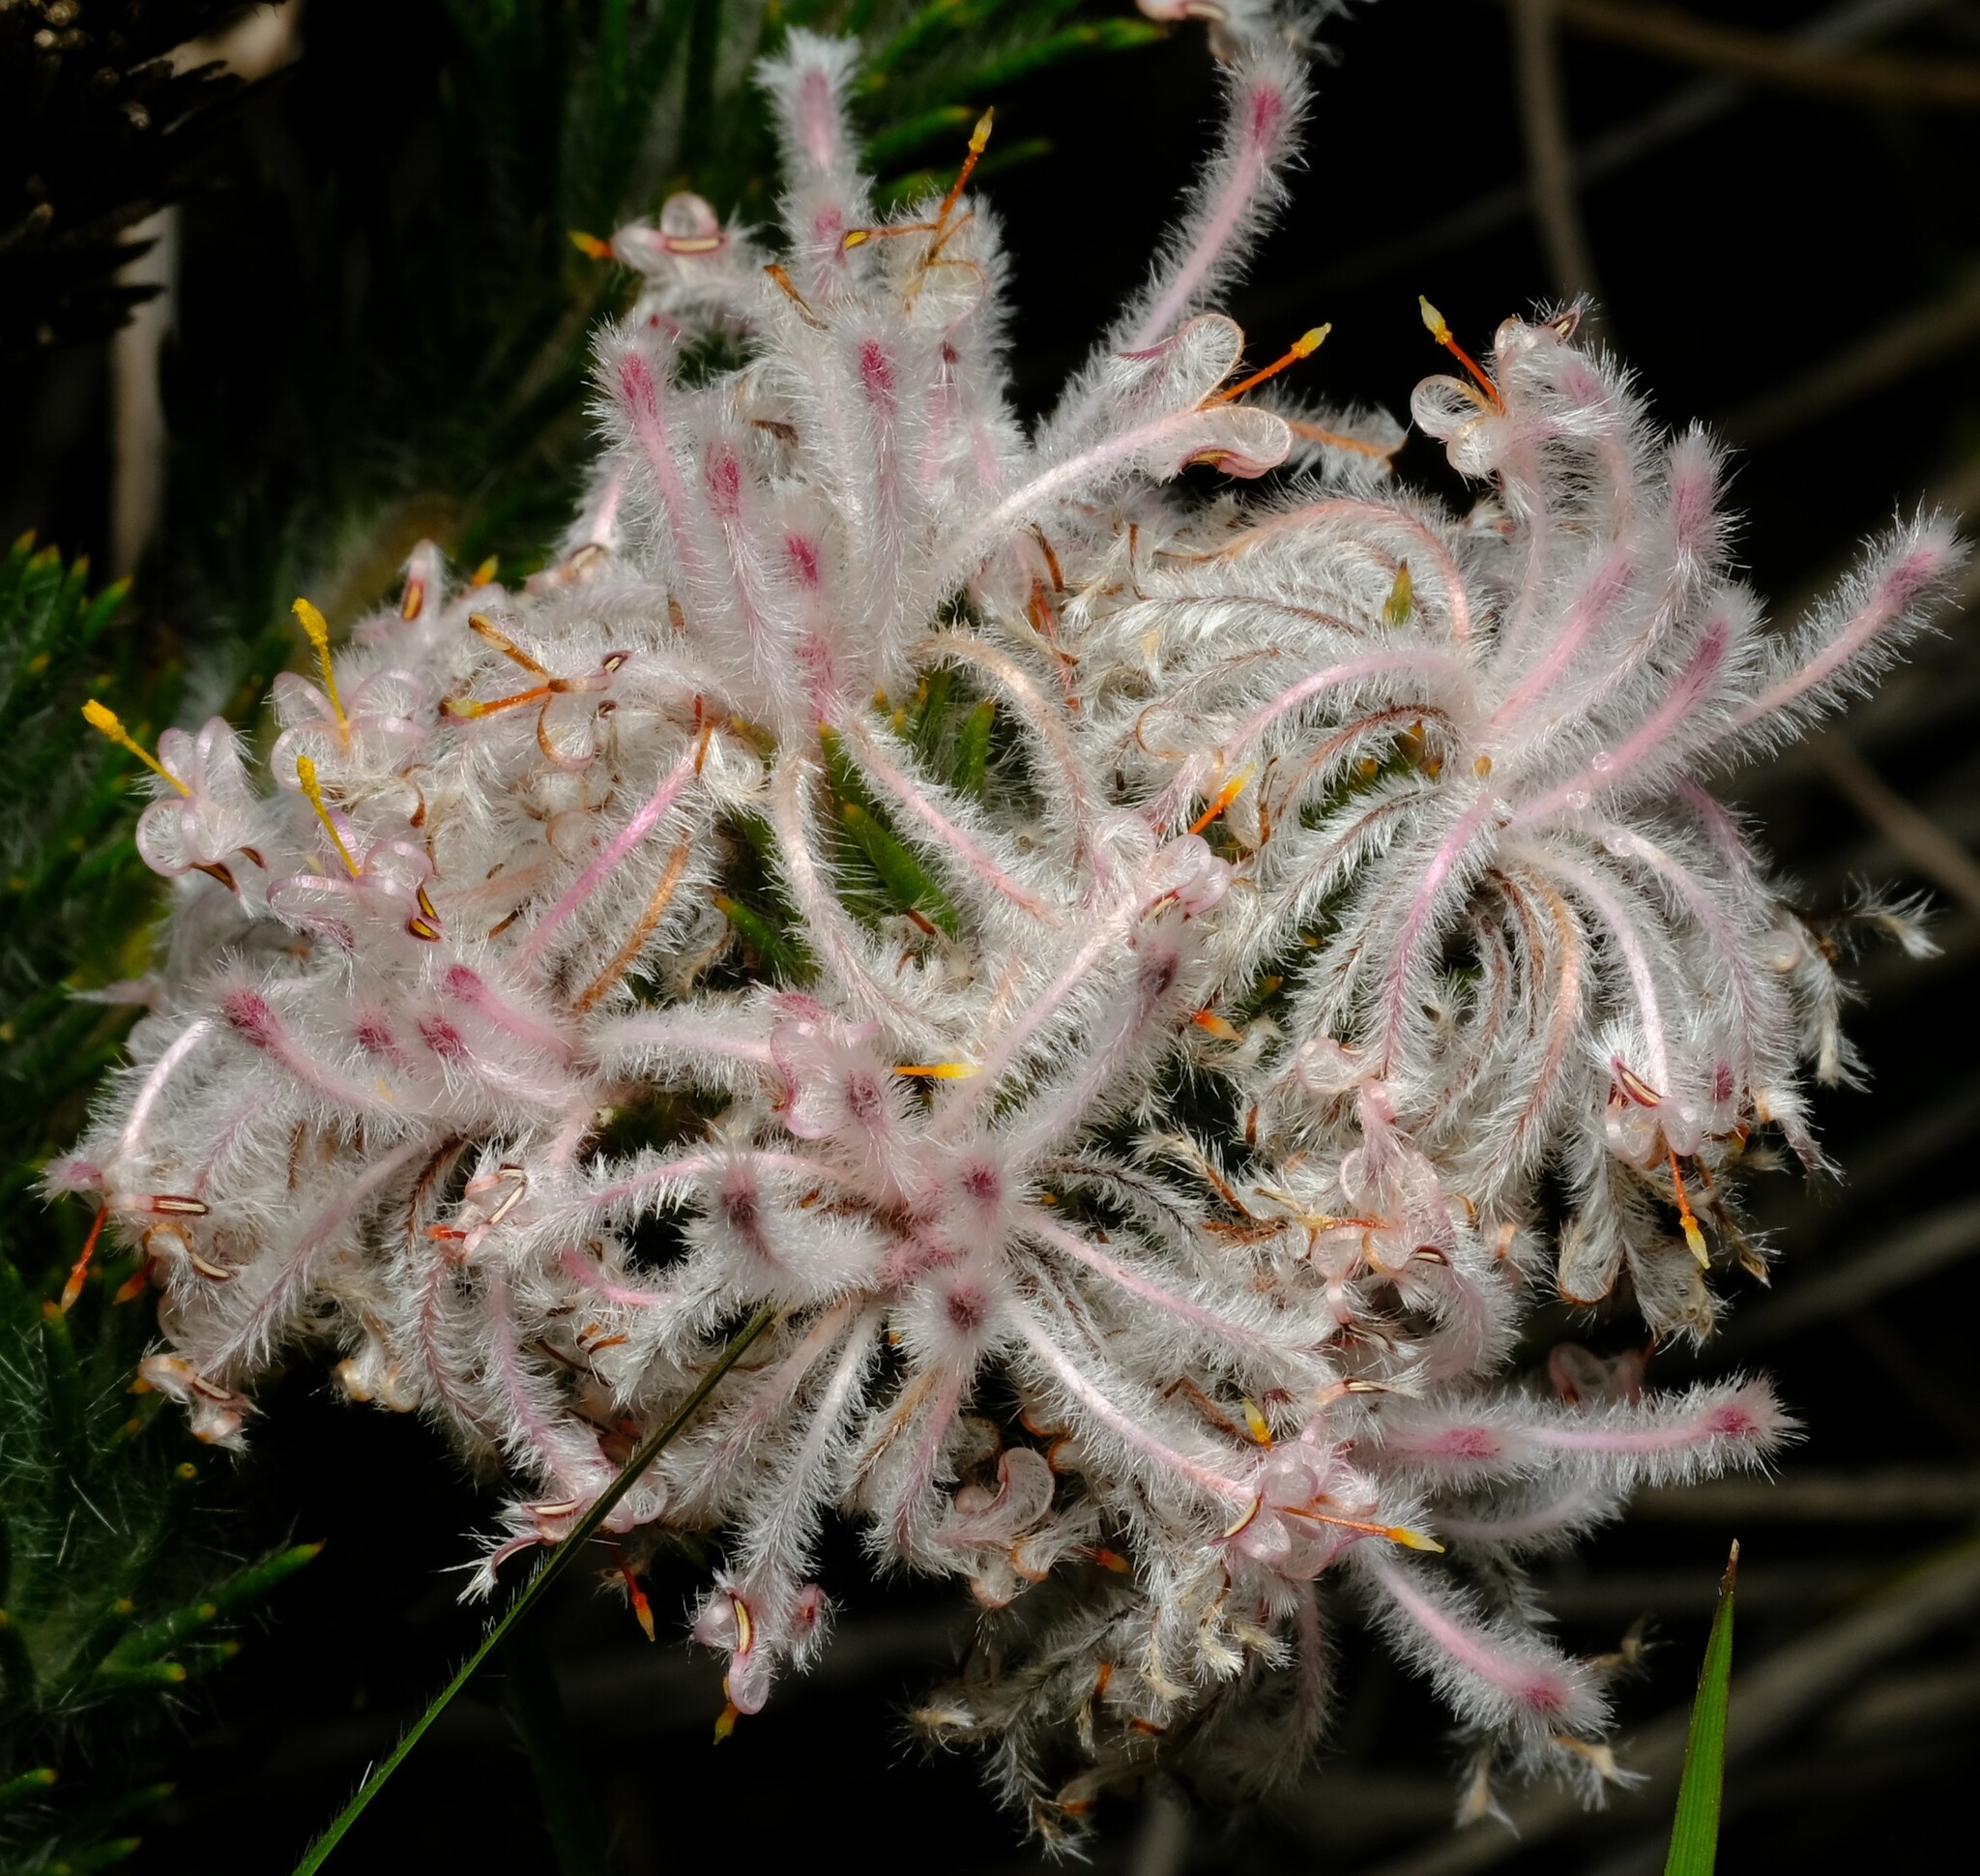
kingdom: Plantae
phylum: Tracheophyta
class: Magnoliopsida
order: Proteales
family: Proteaceae
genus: Isopogon
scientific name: Isopogon inconspicuus
